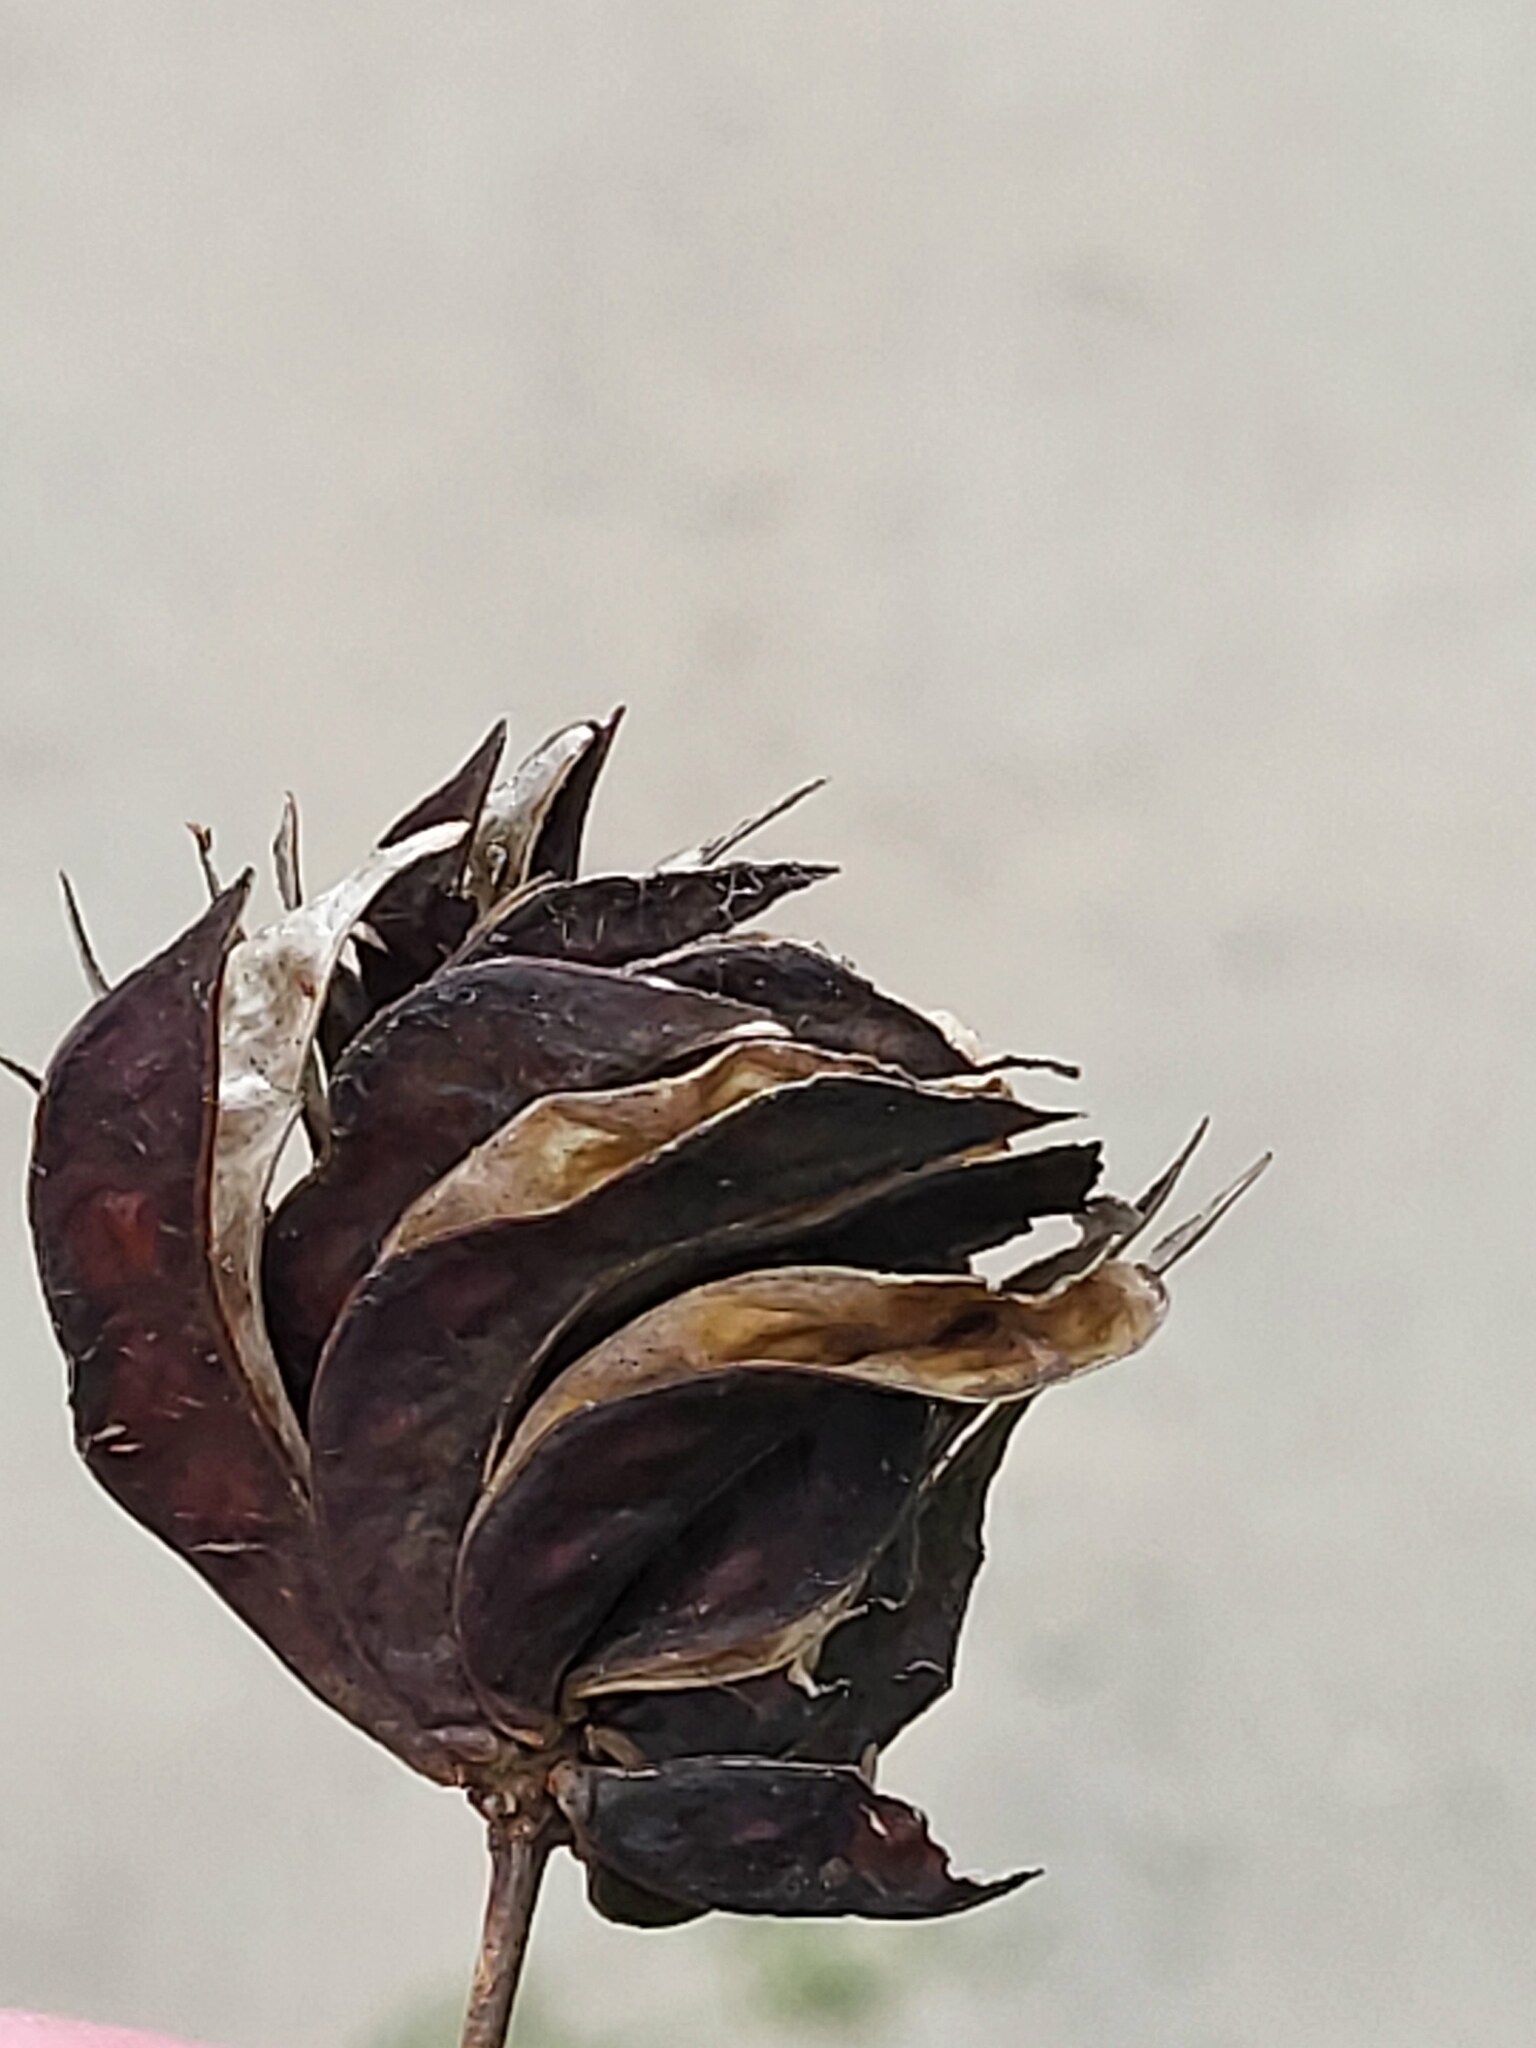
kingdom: Plantae
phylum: Tracheophyta
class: Magnoliopsida
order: Fabales
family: Fabaceae
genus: Desmanthus
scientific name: Desmanthus illinoensis
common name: Illinois bundle-flower
